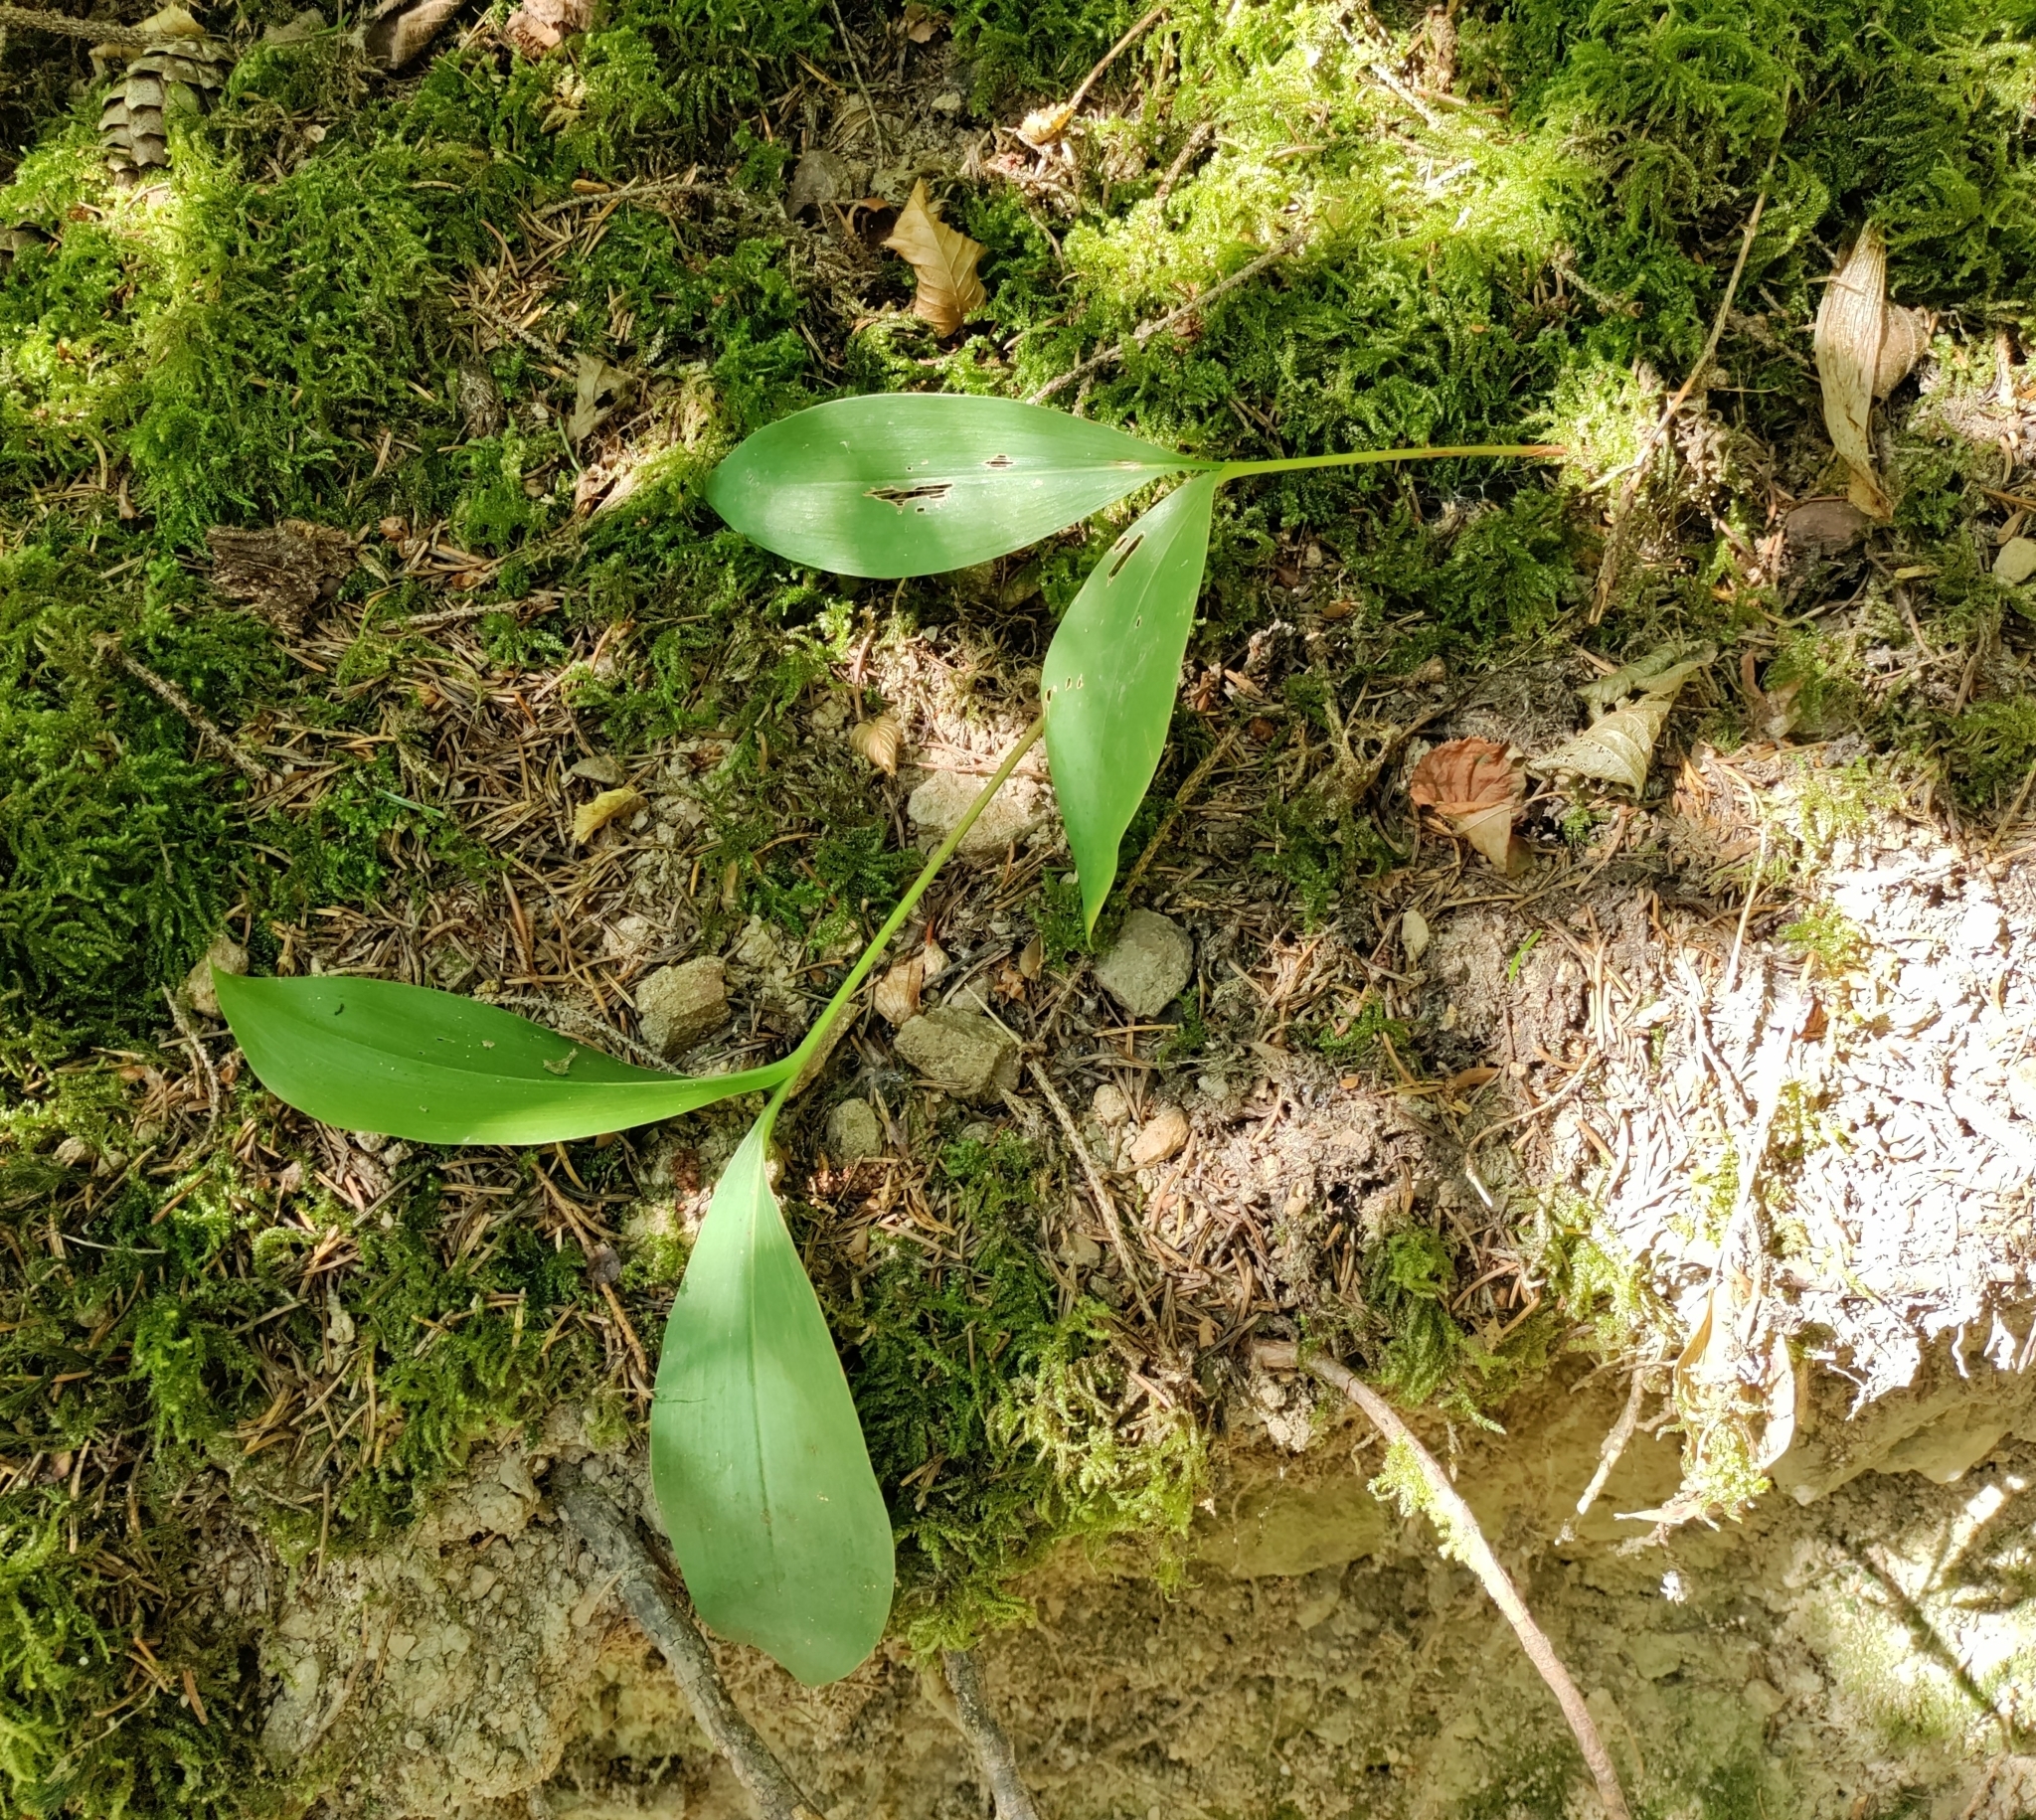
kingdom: Plantae
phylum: Tracheophyta
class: Liliopsida
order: Asparagales
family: Asparagaceae
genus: Convallaria
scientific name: Convallaria majalis
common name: Lily-of-the-valley
